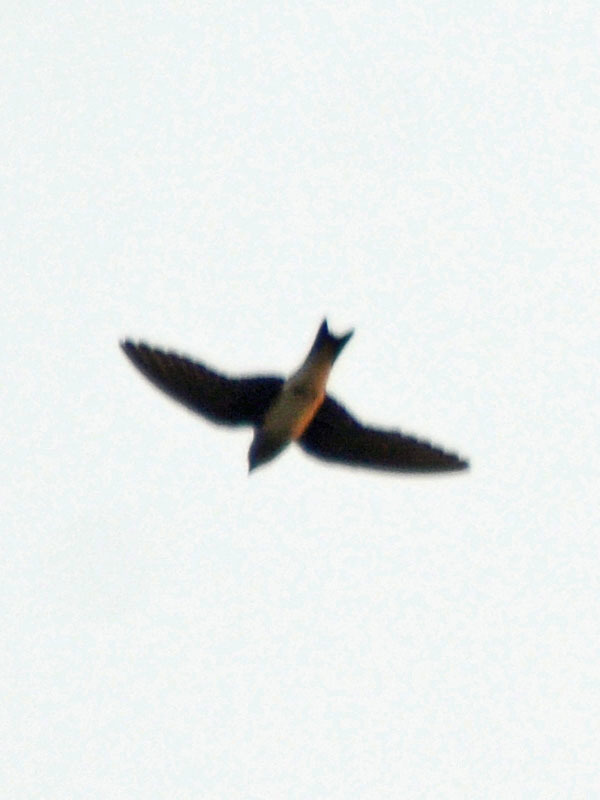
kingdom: Animalia
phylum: Chordata
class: Aves
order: Passeriformes
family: Hirundinidae
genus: Hirundo
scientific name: Hirundo rustica
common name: Barn swallow
